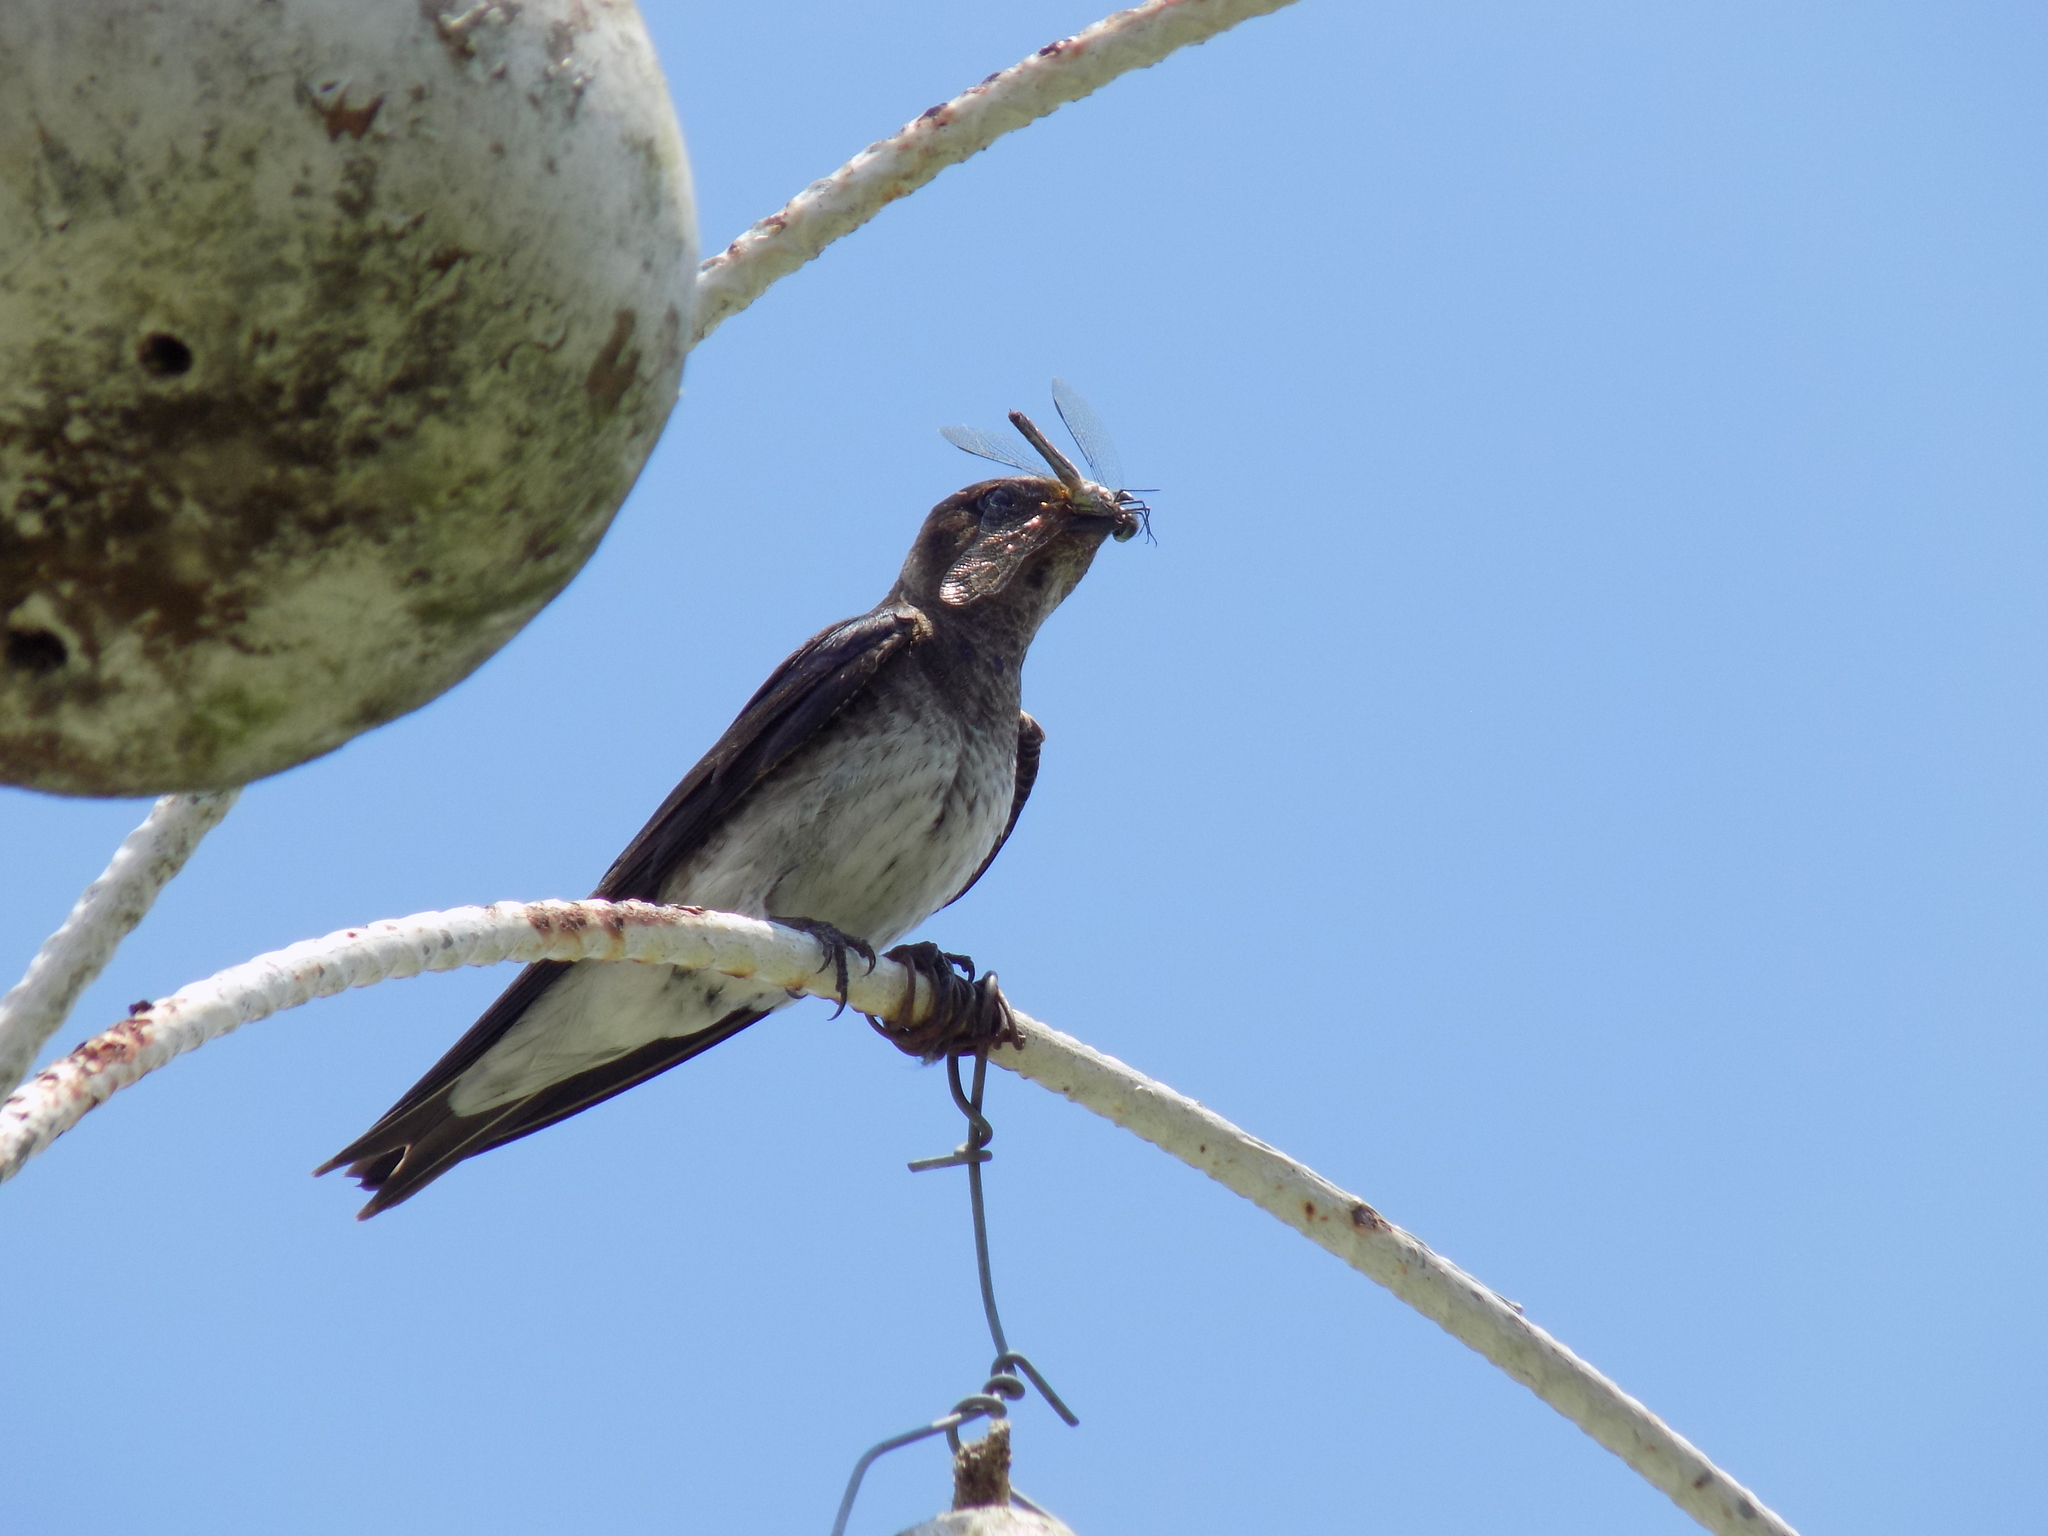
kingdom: Animalia
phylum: Chordata
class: Aves
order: Passeriformes
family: Hirundinidae
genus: Progne
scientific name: Progne subis
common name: Purple martin
